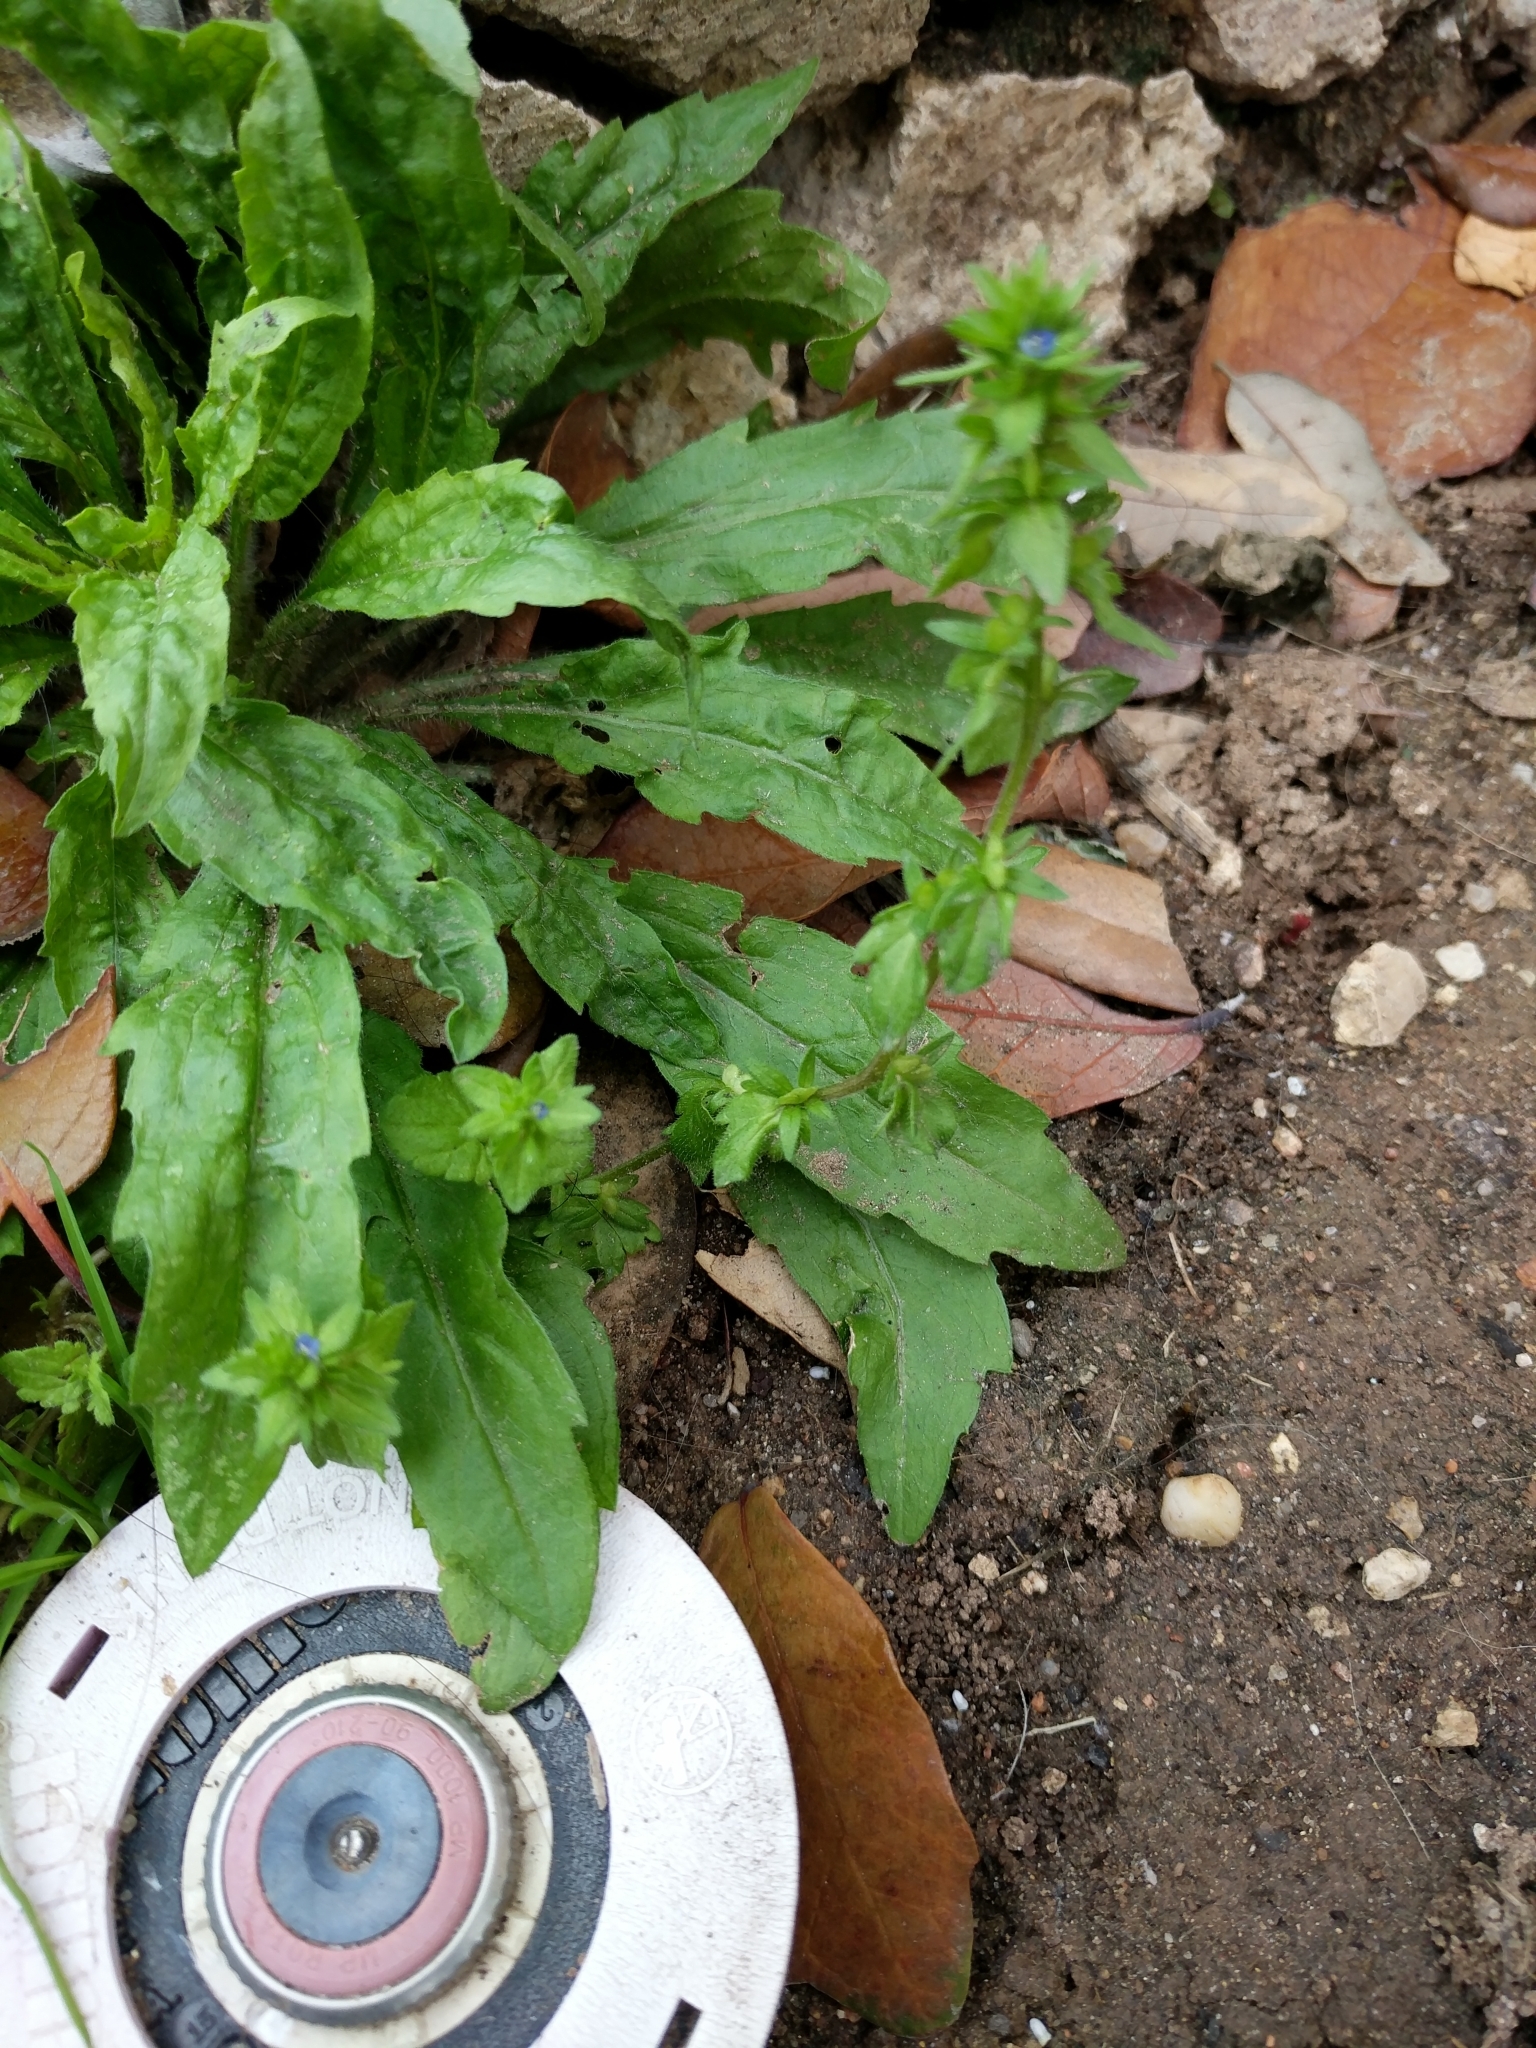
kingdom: Plantae
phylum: Tracheophyta
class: Magnoliopsida
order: Lamiales
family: Plantaginaceae
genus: Veronica
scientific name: Veronica arvensis
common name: Corn speedwell
